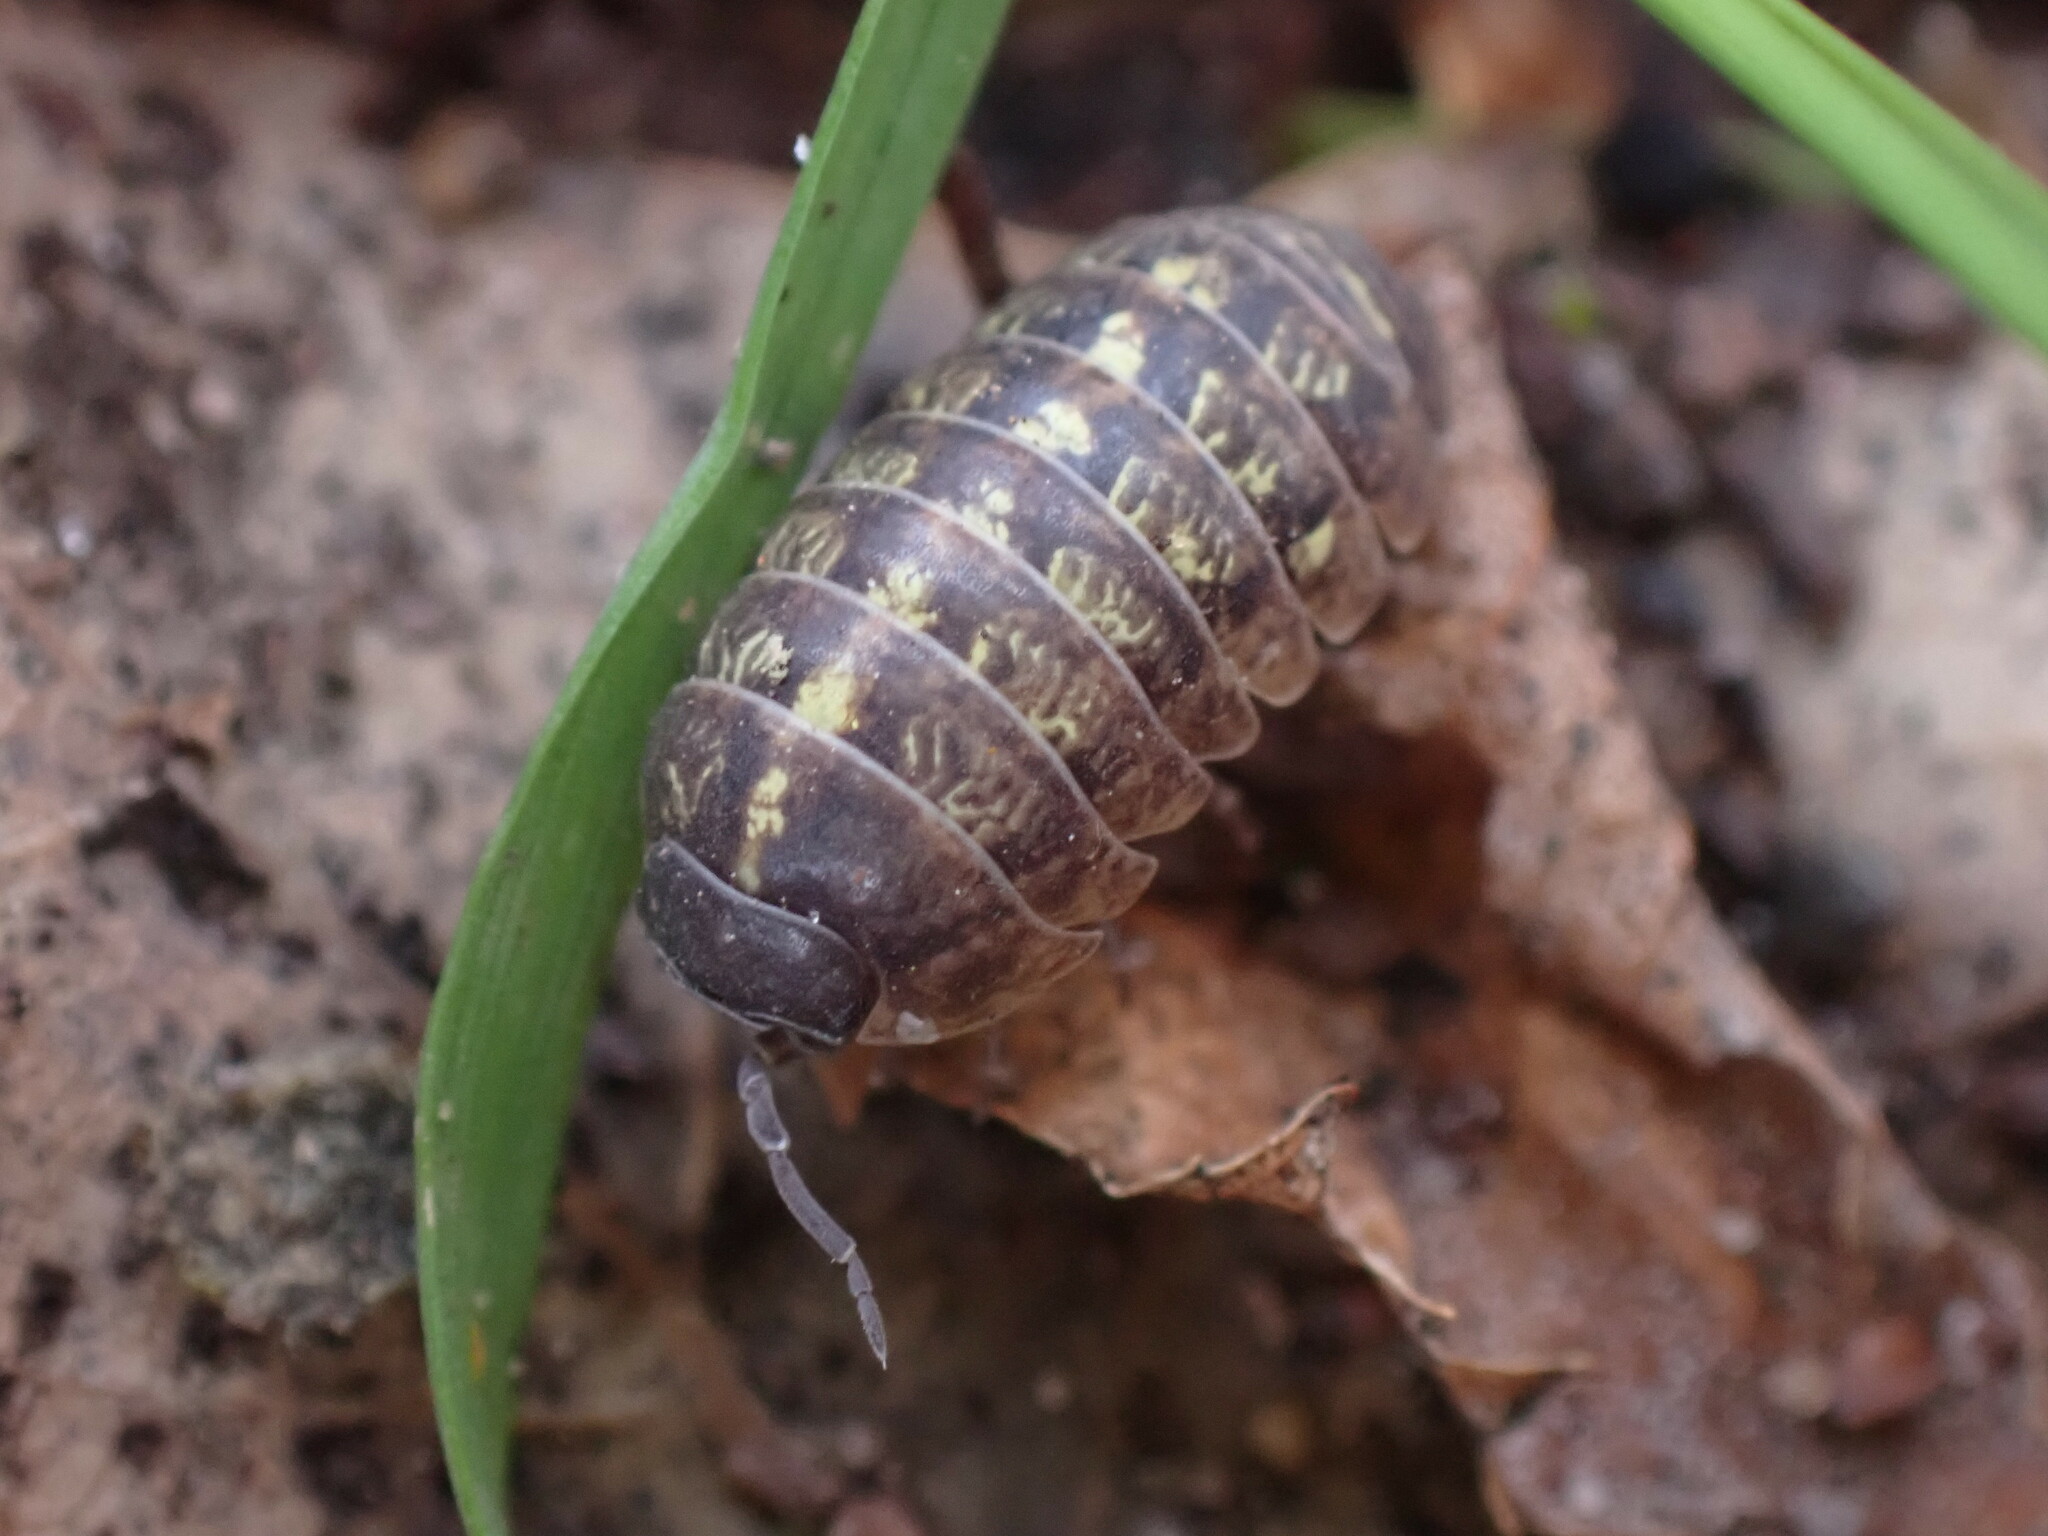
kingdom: Animalia
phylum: Arthropoda
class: Malacostraca
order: Isopoda
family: Armadillidiidae
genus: Armadillidium
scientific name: Armadillidium vulgare
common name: Common pill woodlouse
